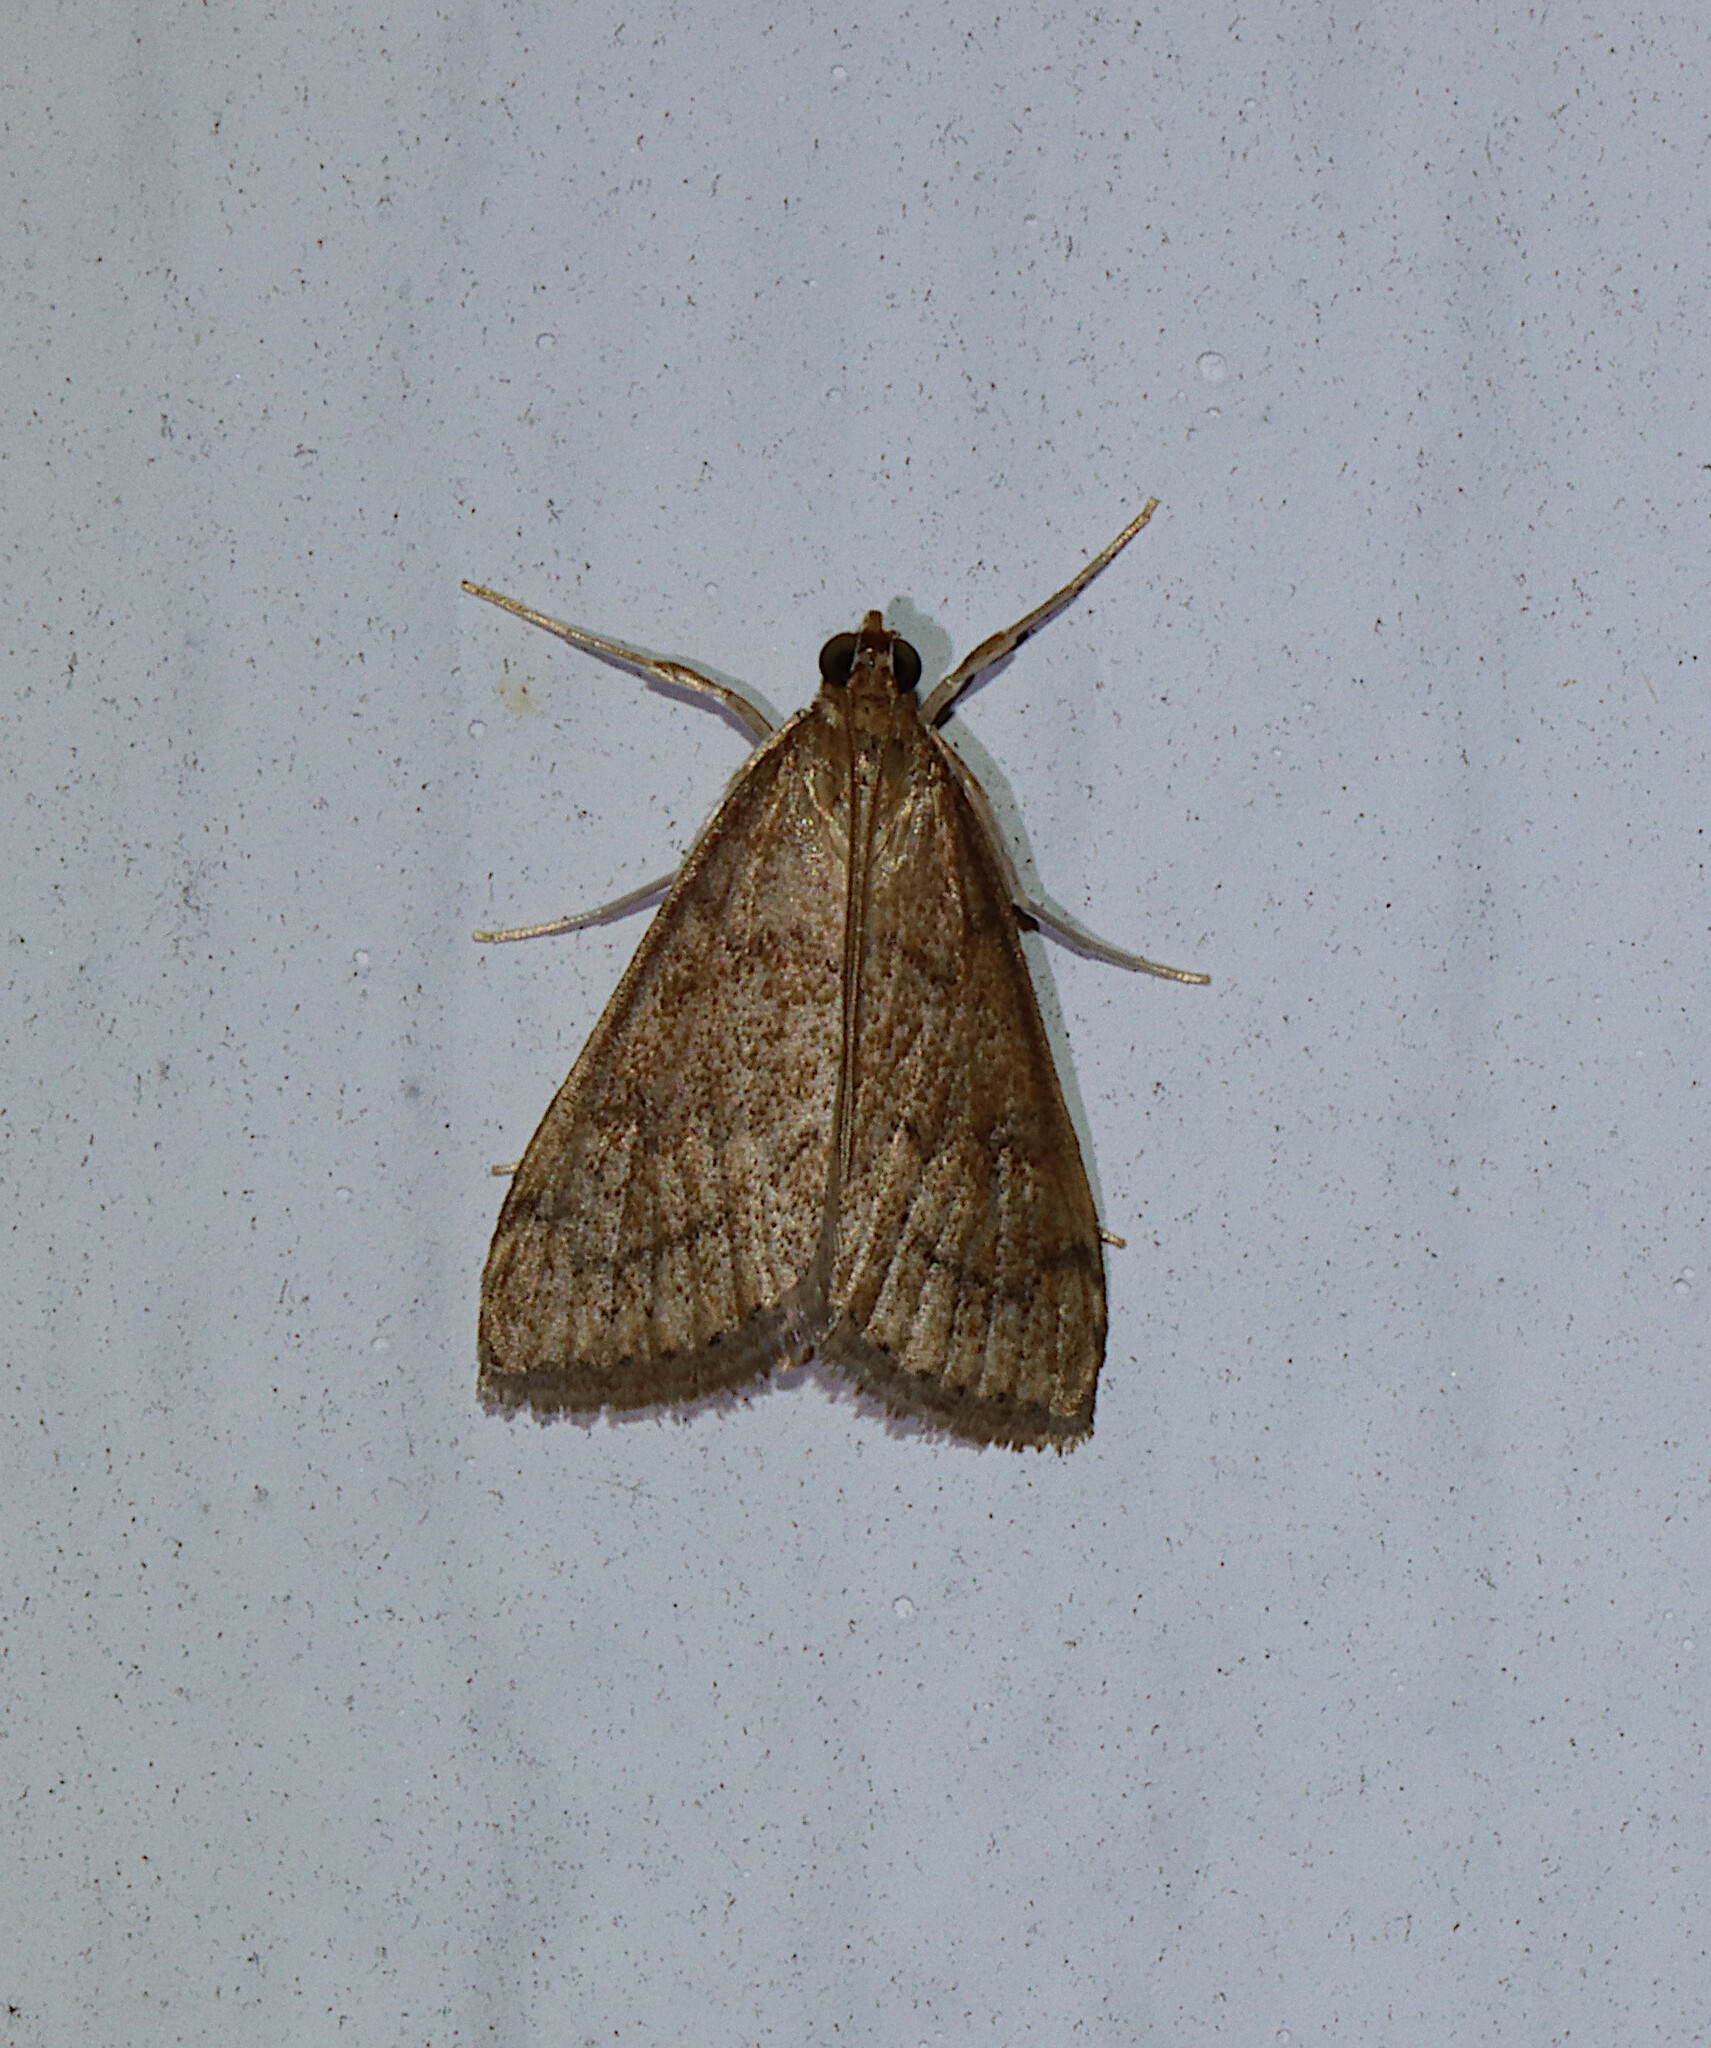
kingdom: Animalia
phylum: Arthropoda
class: Insecta
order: Lepidoptera
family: Crambidae
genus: Udea
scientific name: Udea rubigalis
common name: Celery leaftier moth
